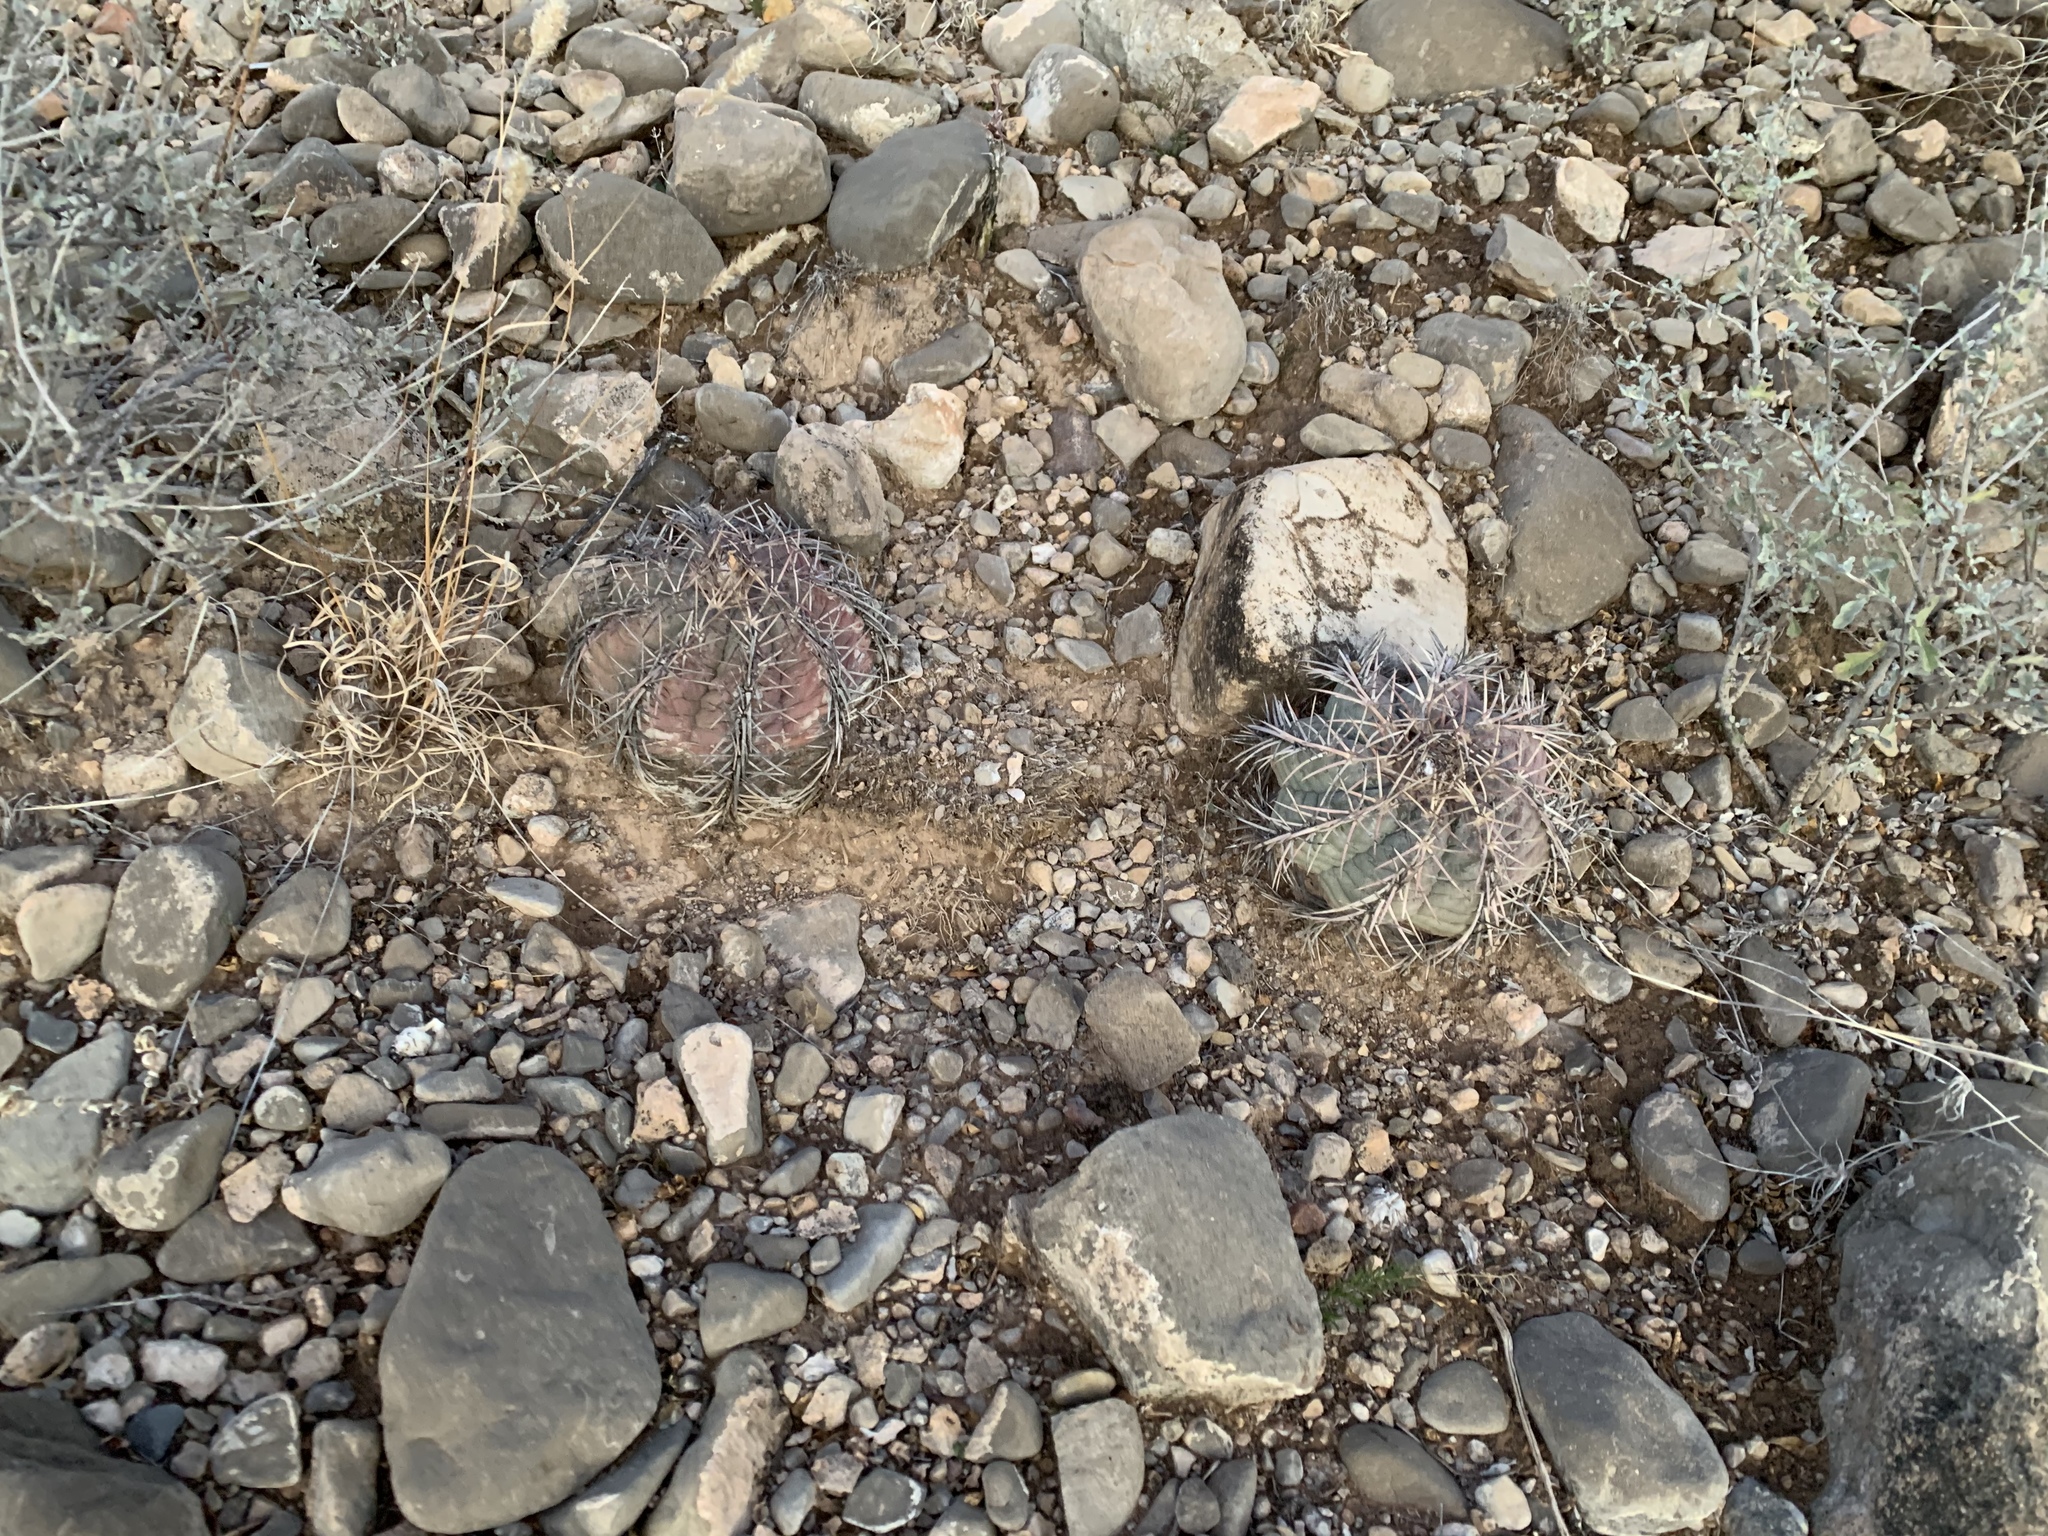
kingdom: Plantae
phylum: Tracheophyta
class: Magnoliopsida
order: Caryophyllales
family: Cactaceae
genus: Echinocactus
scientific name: Echinocactus horizonthalonius
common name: Devilshead
